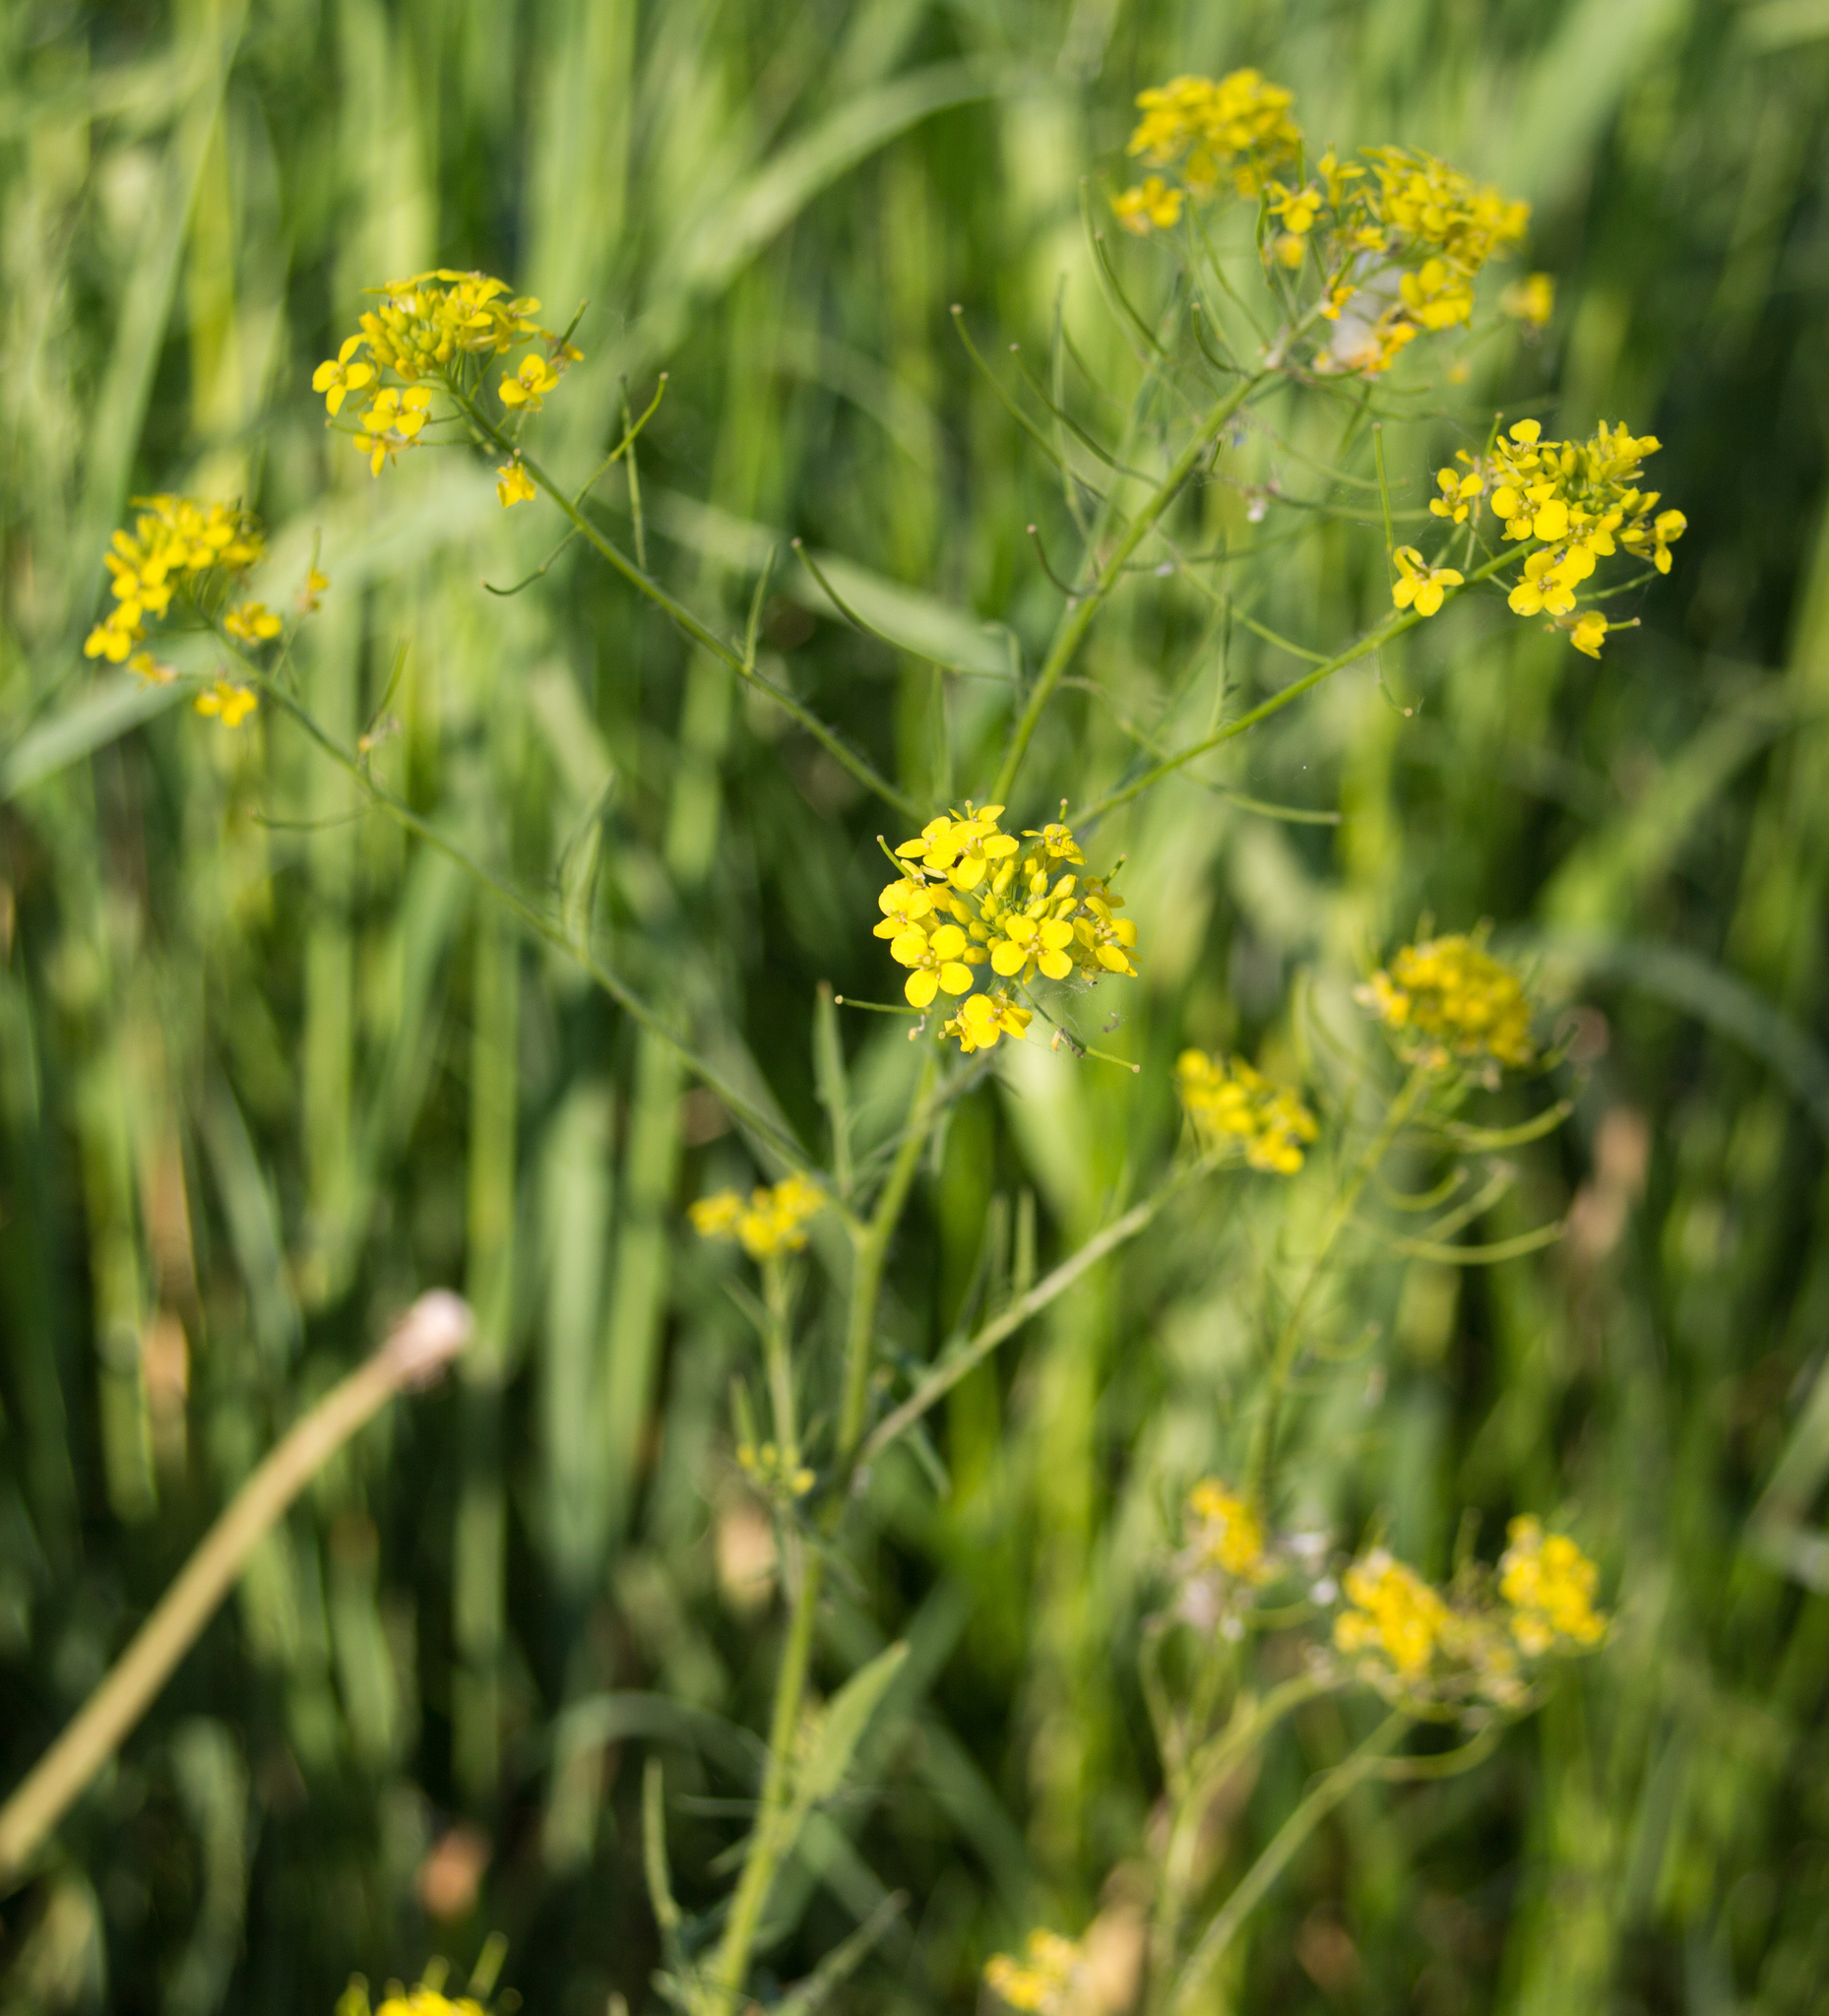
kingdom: Plantae
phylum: Tracheophyta
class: Magnoliopsida
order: Brassicales
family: Brassicaceae
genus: Sisymbrium
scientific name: Sisymbrium loeselii
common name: False london-rocket
